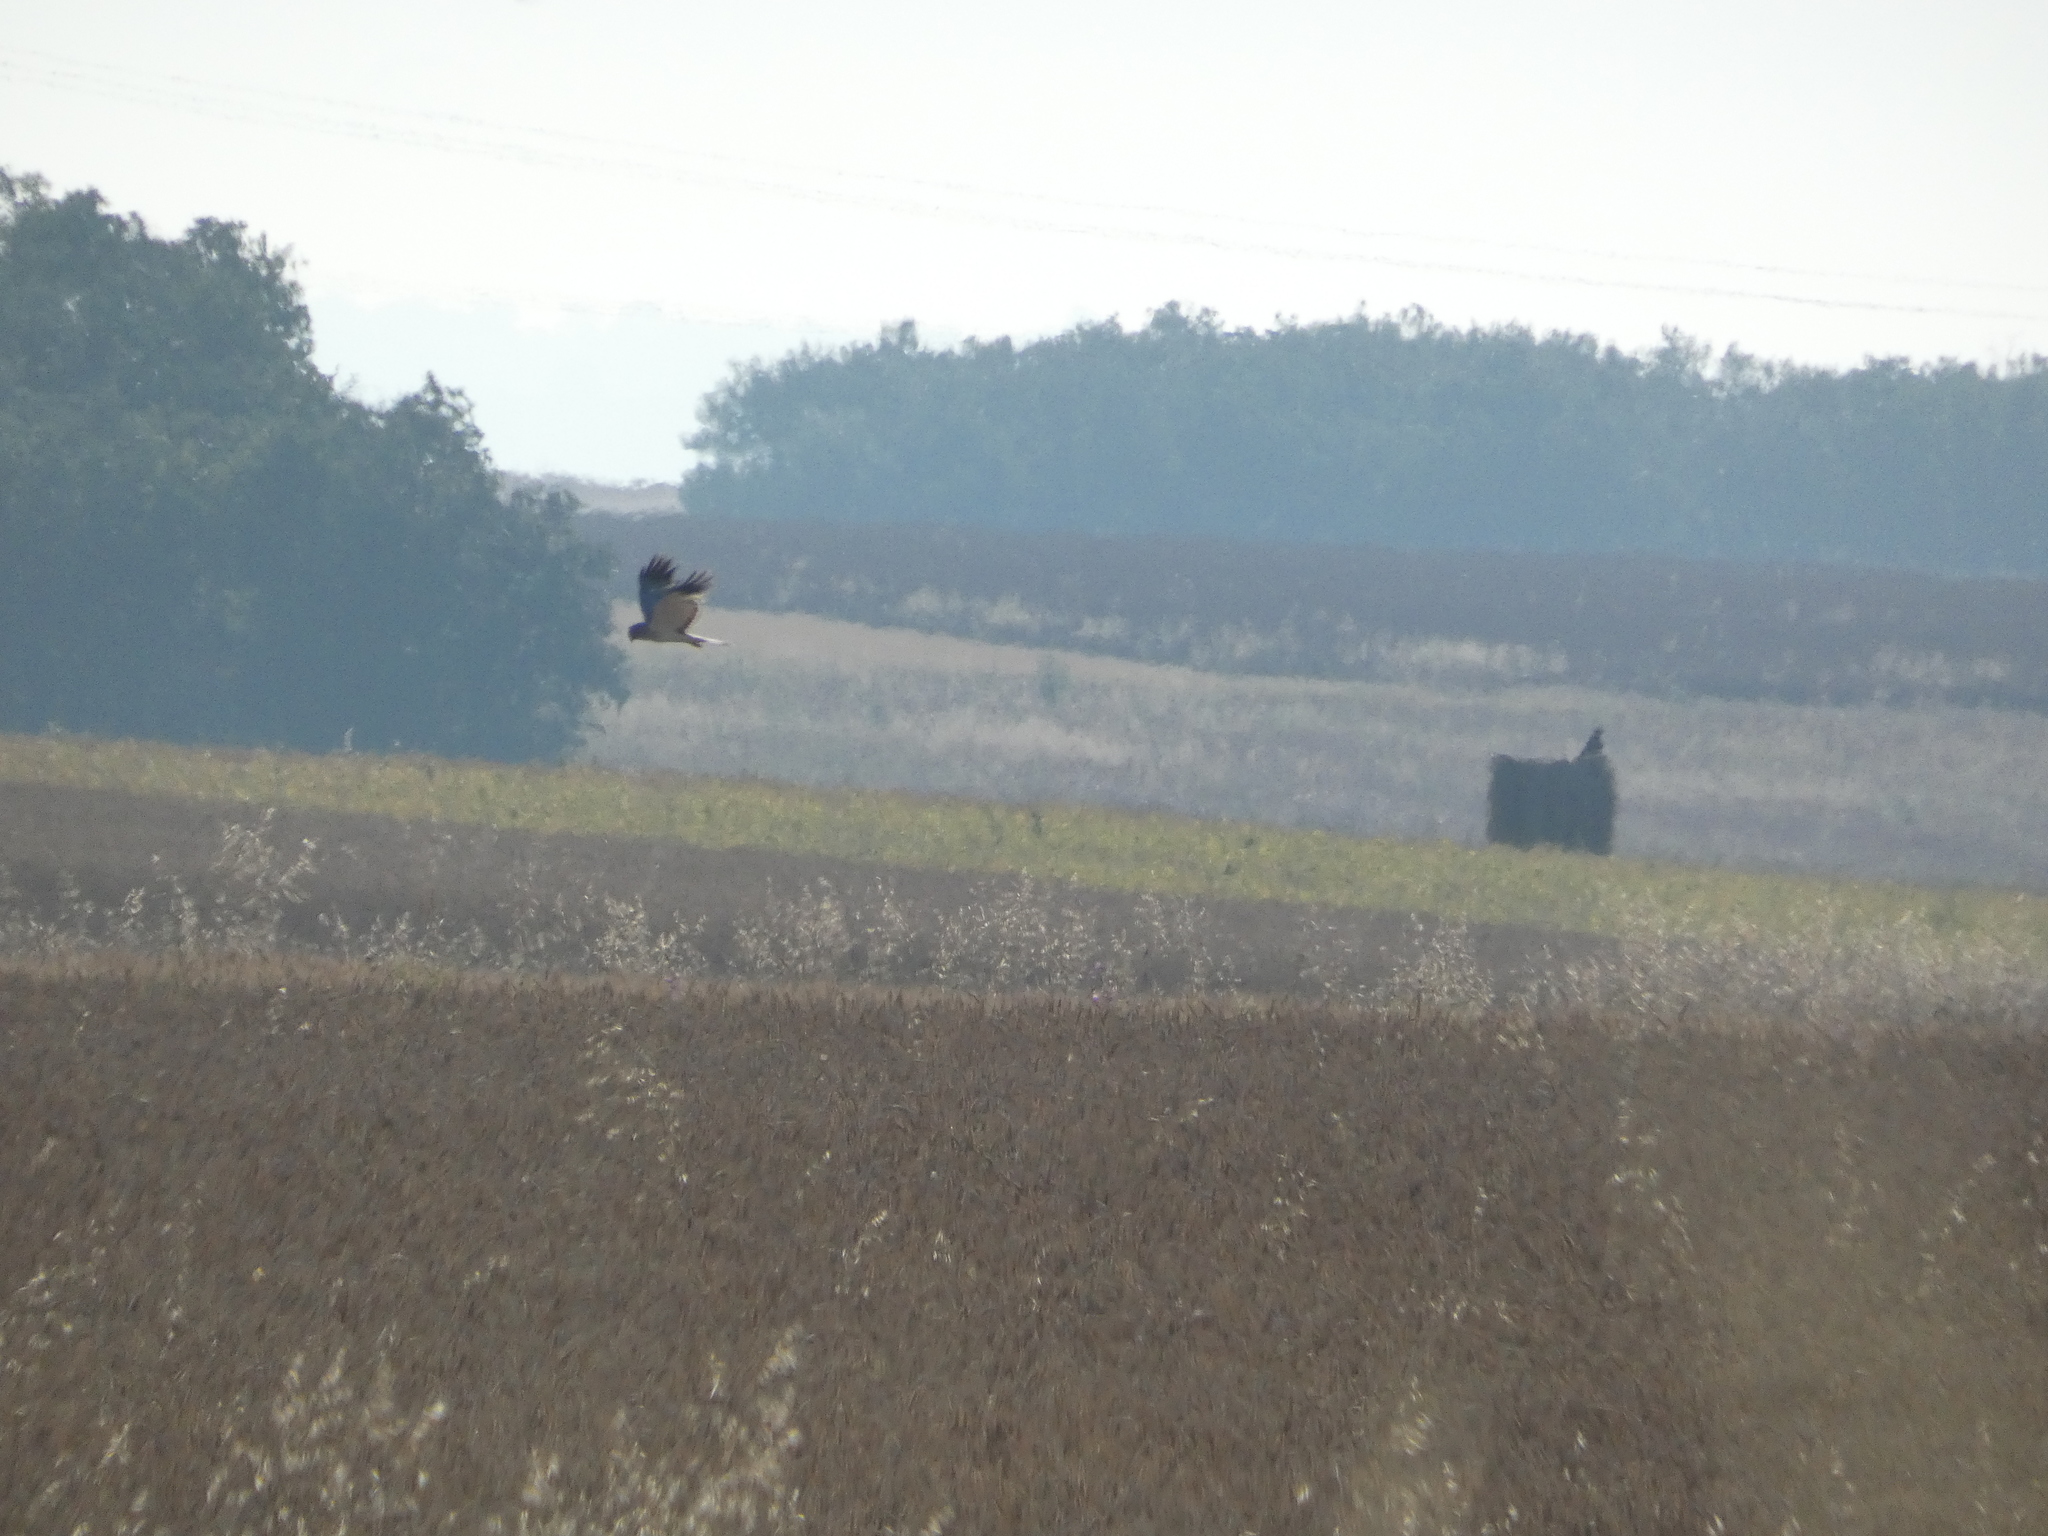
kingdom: Animalia
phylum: Chordata
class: Aves
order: Accipitriformes
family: Accipitridae
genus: Circus
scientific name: Circus cyaneus
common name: Hen harrier
